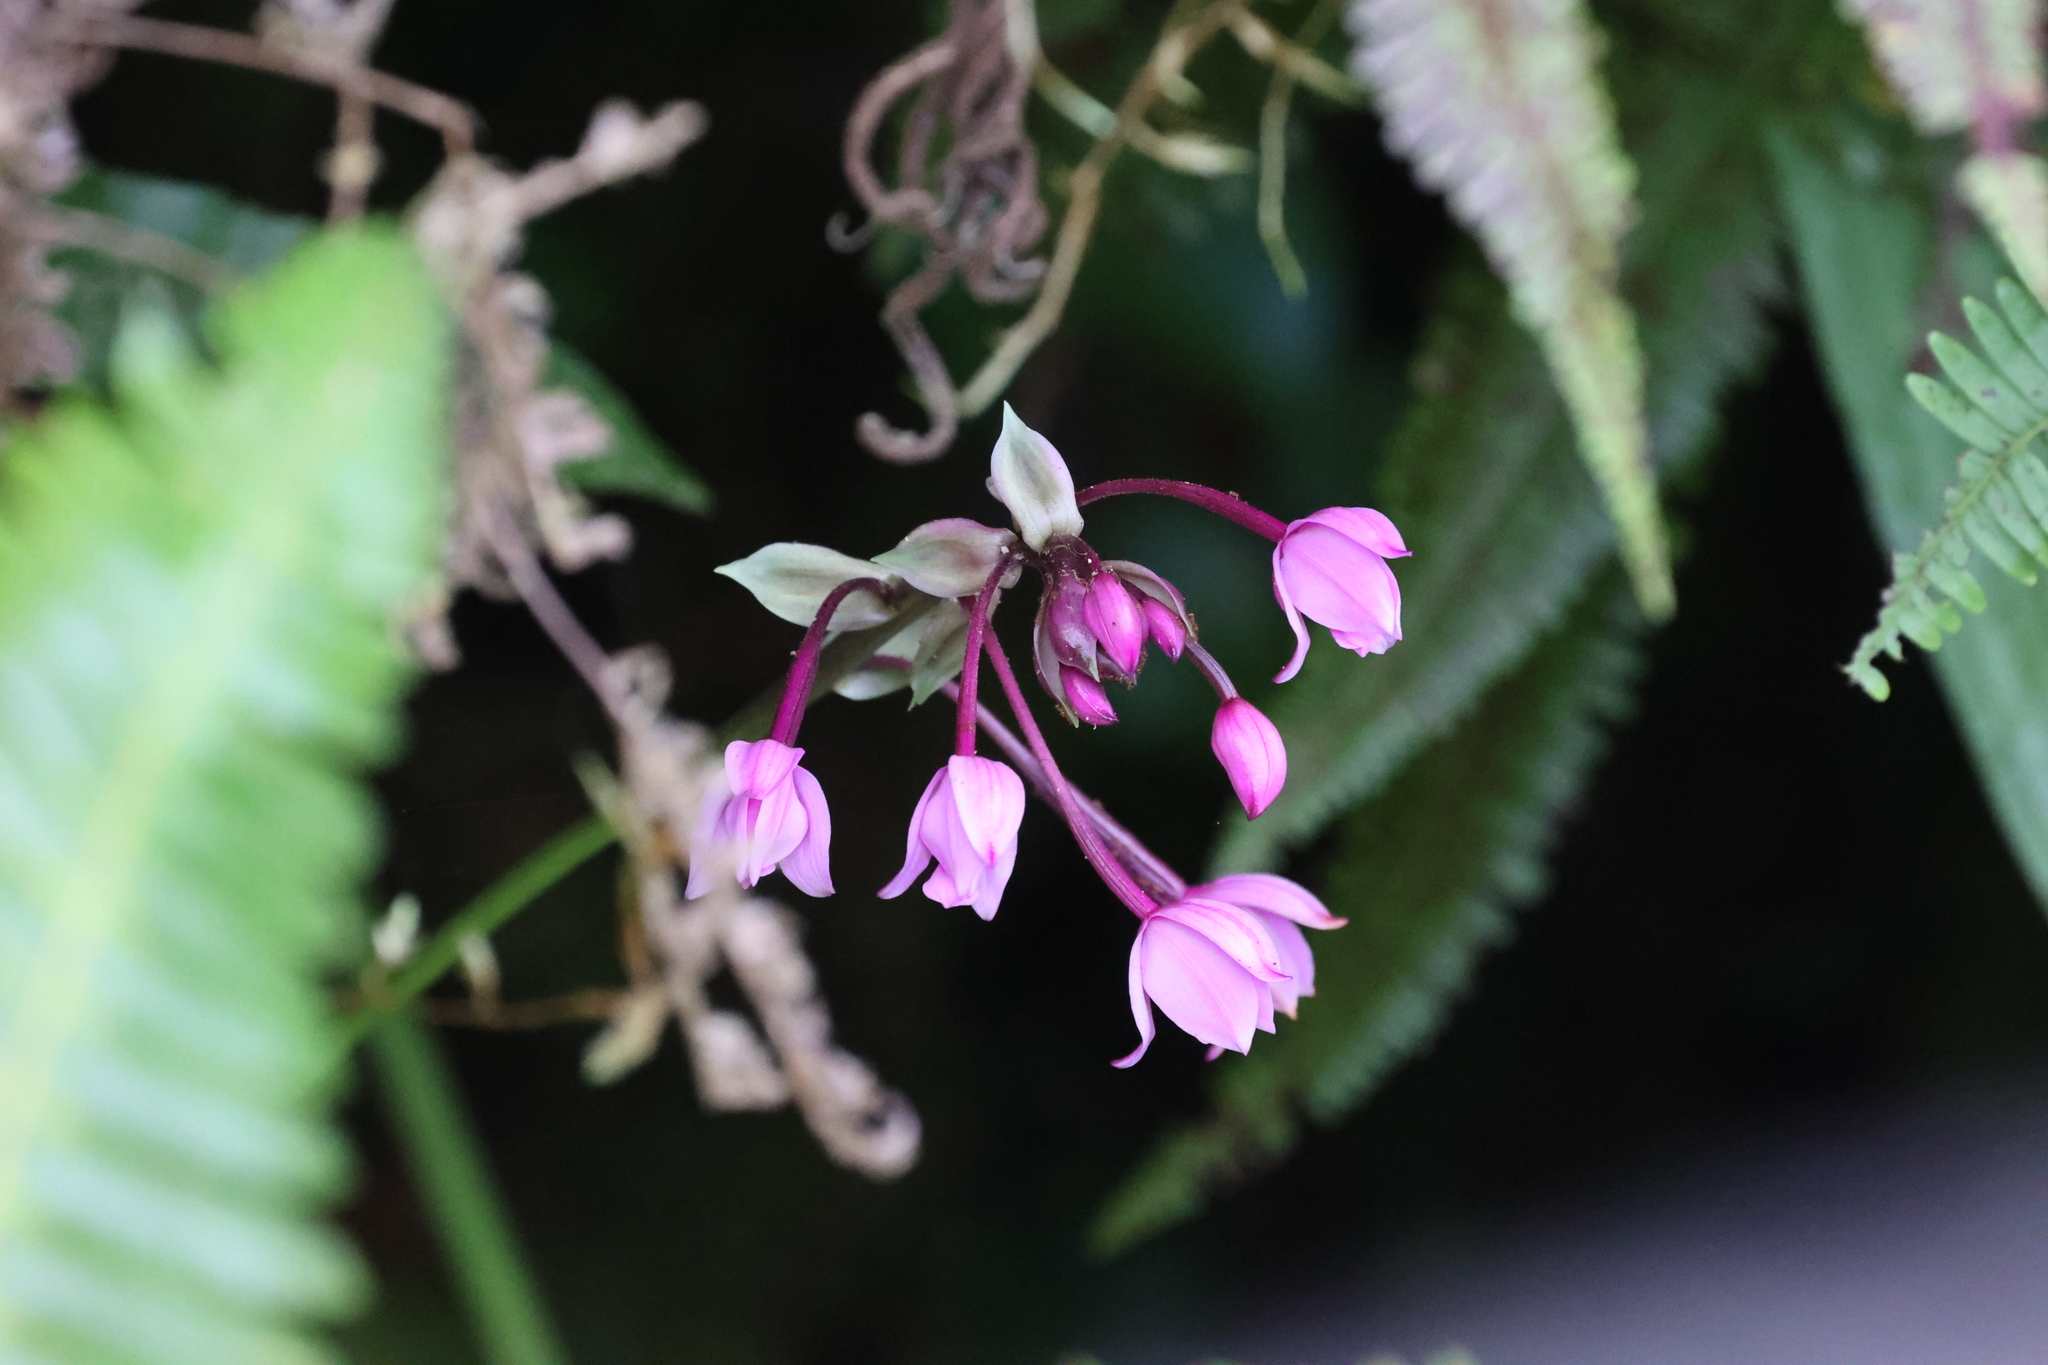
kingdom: Plantae
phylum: Tracheophyta
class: Liliopsida
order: Asparagales
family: Orchidaceae
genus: Spathoglottis
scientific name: Spathoglottis plicata
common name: Philippine ground orchid
